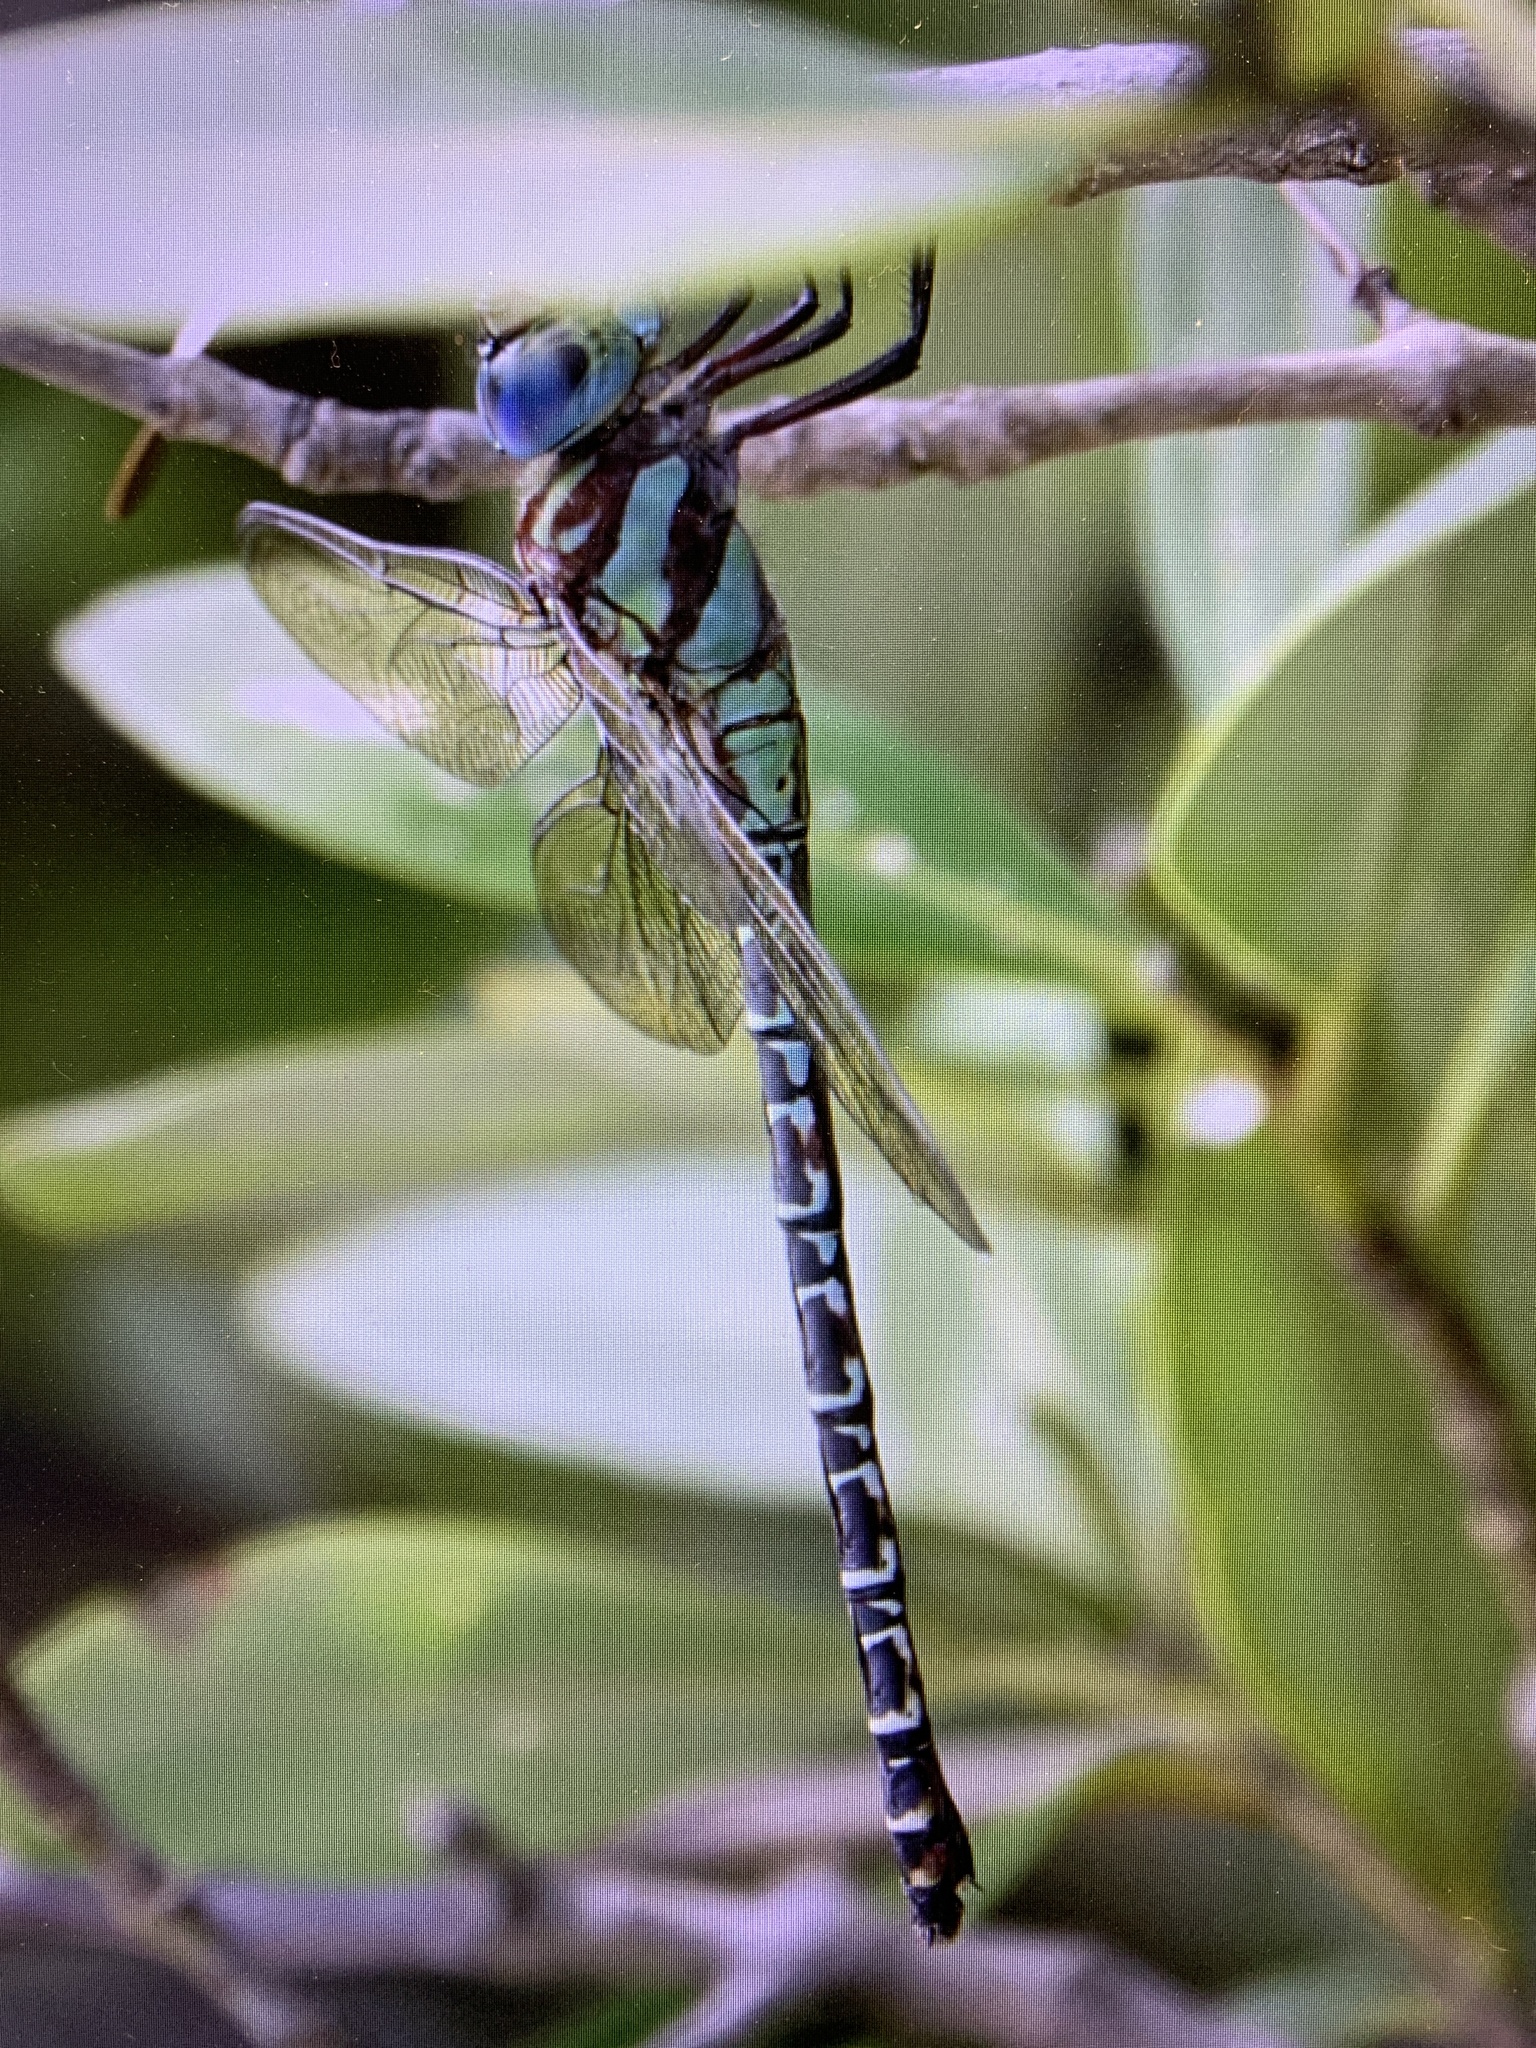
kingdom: Animalia
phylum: Arthropoda
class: Insecta
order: Odonata
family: Aeshnidae
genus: Coryphaeschna
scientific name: Coryphaeschna ingens
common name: Regal darner
